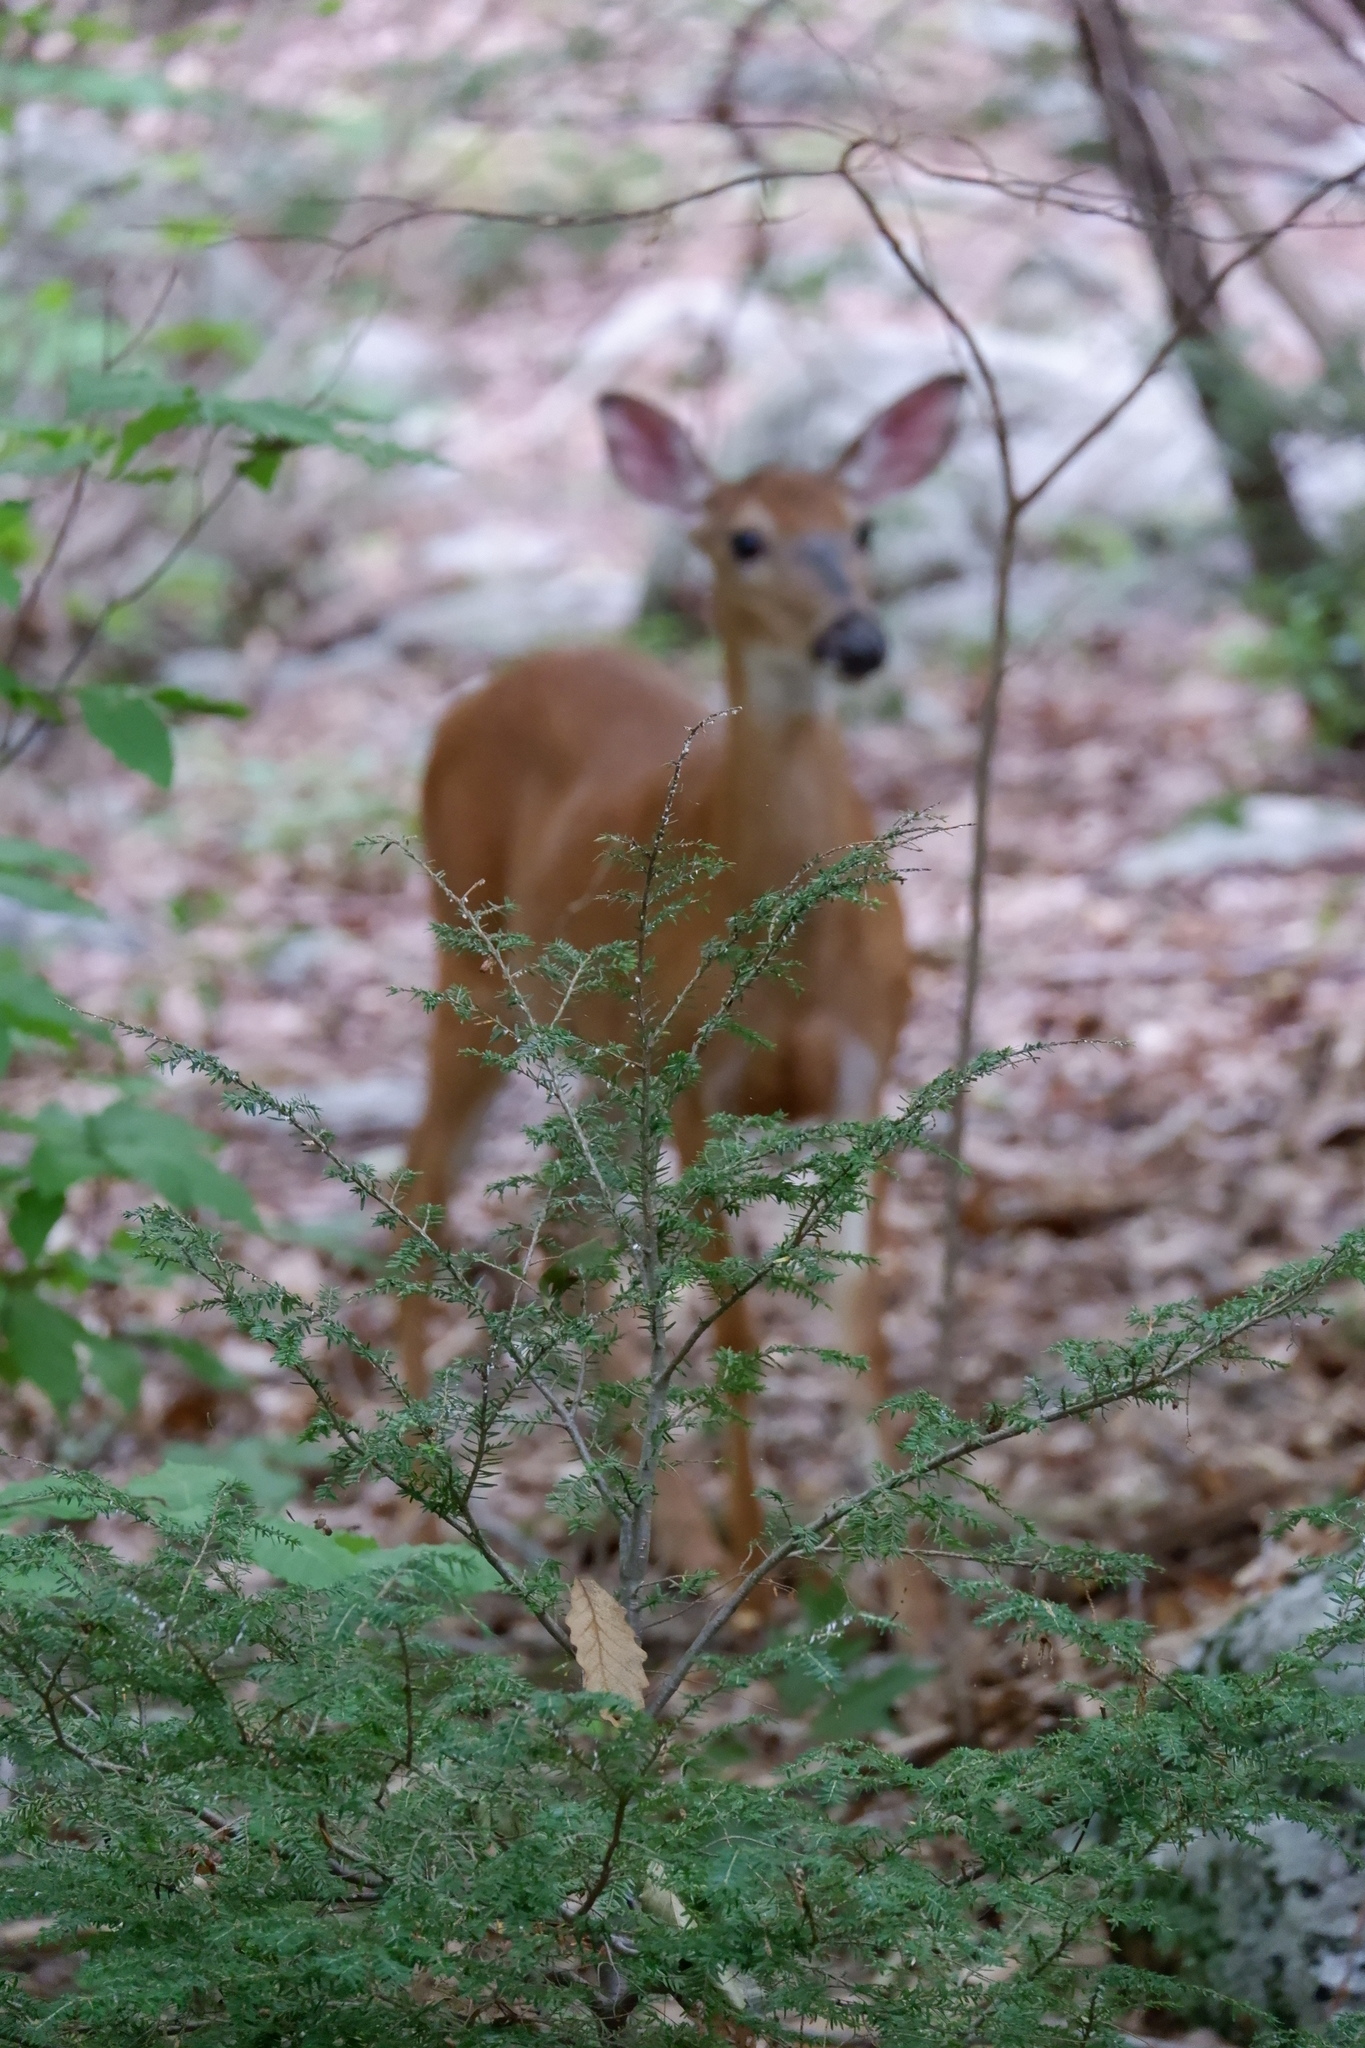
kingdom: Plantae
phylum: Tracheophyta
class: Pinopsida
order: Pinales
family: Pinaceae
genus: Tsuga
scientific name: Tsuga canadensis
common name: Eastern hemlock
